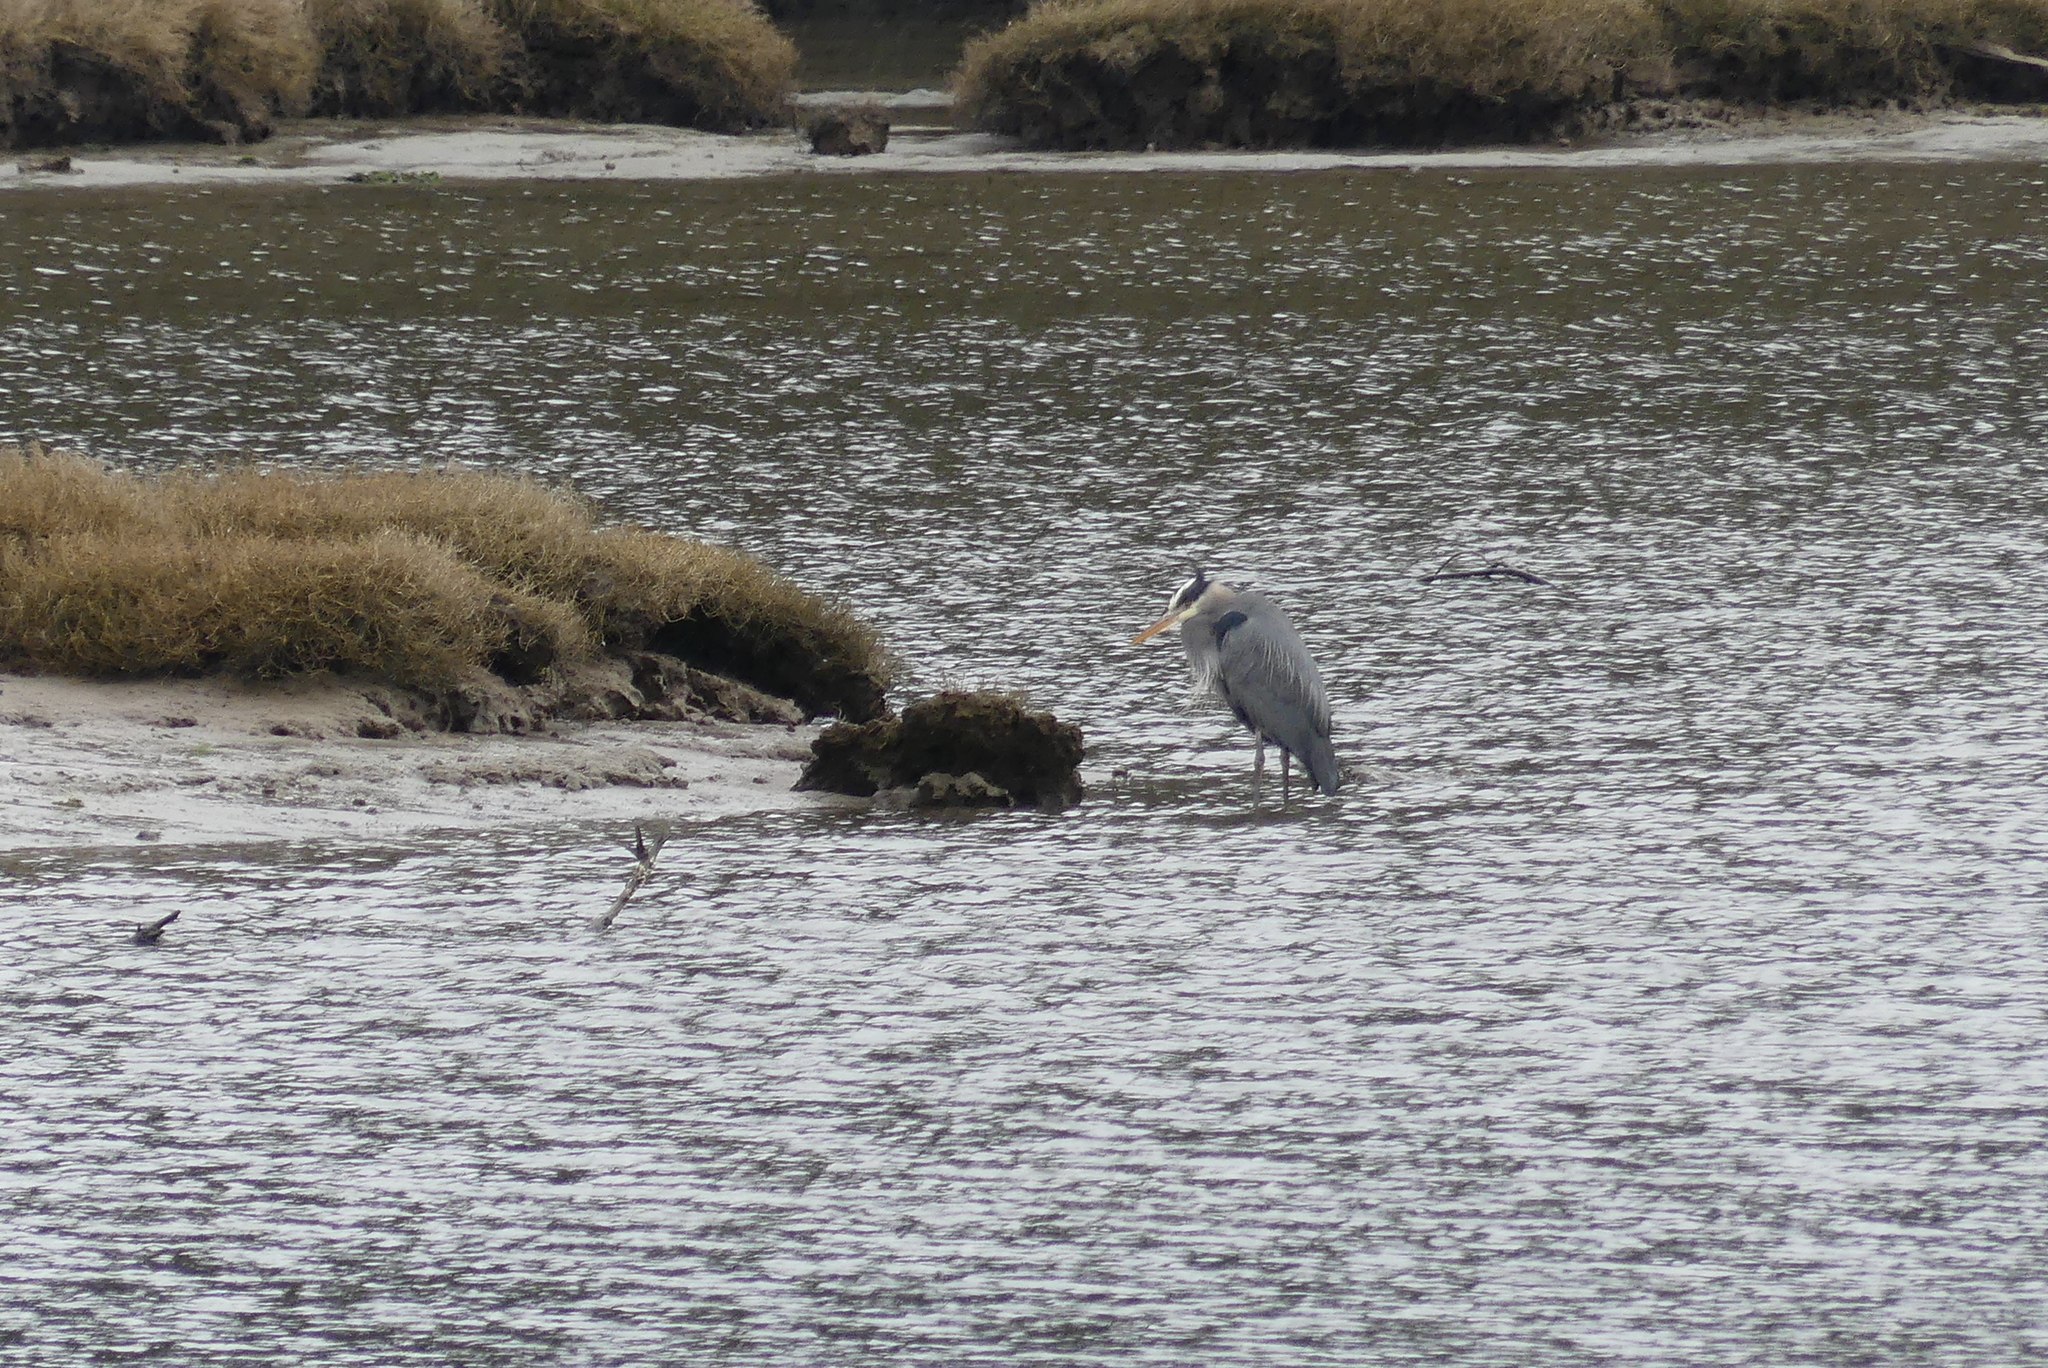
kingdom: Animalia
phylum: Chordata
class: Aves
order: Pelecaniformes
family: Ardeidae
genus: Ardea
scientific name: Ardea herodias
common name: Great blue heron
